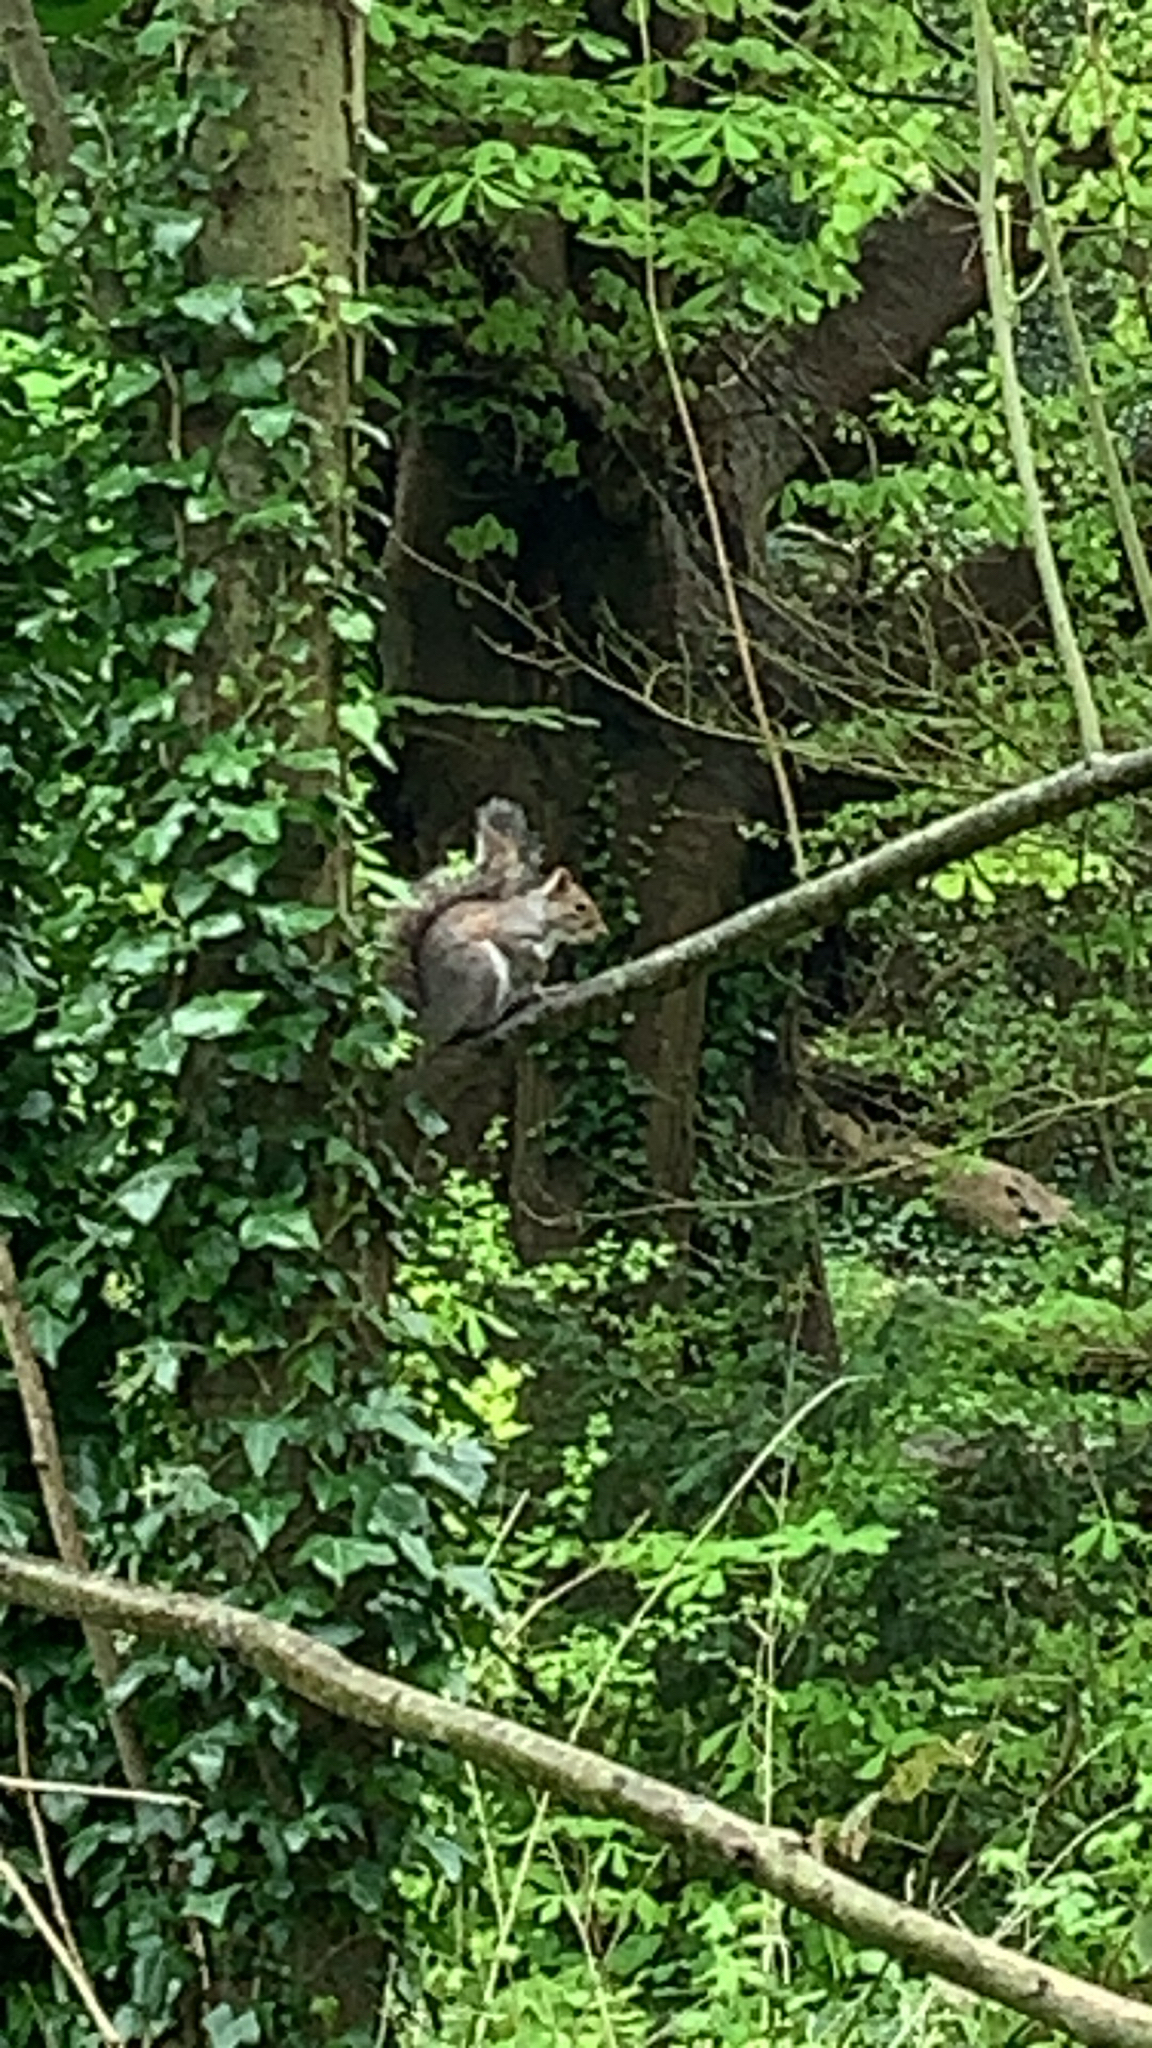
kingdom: Animalia
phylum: Chordata
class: Mammalia
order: Rodentia
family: Sciuridae
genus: Sciurus
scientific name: Sciurus carolinensis
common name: Eastern gray squirrel
